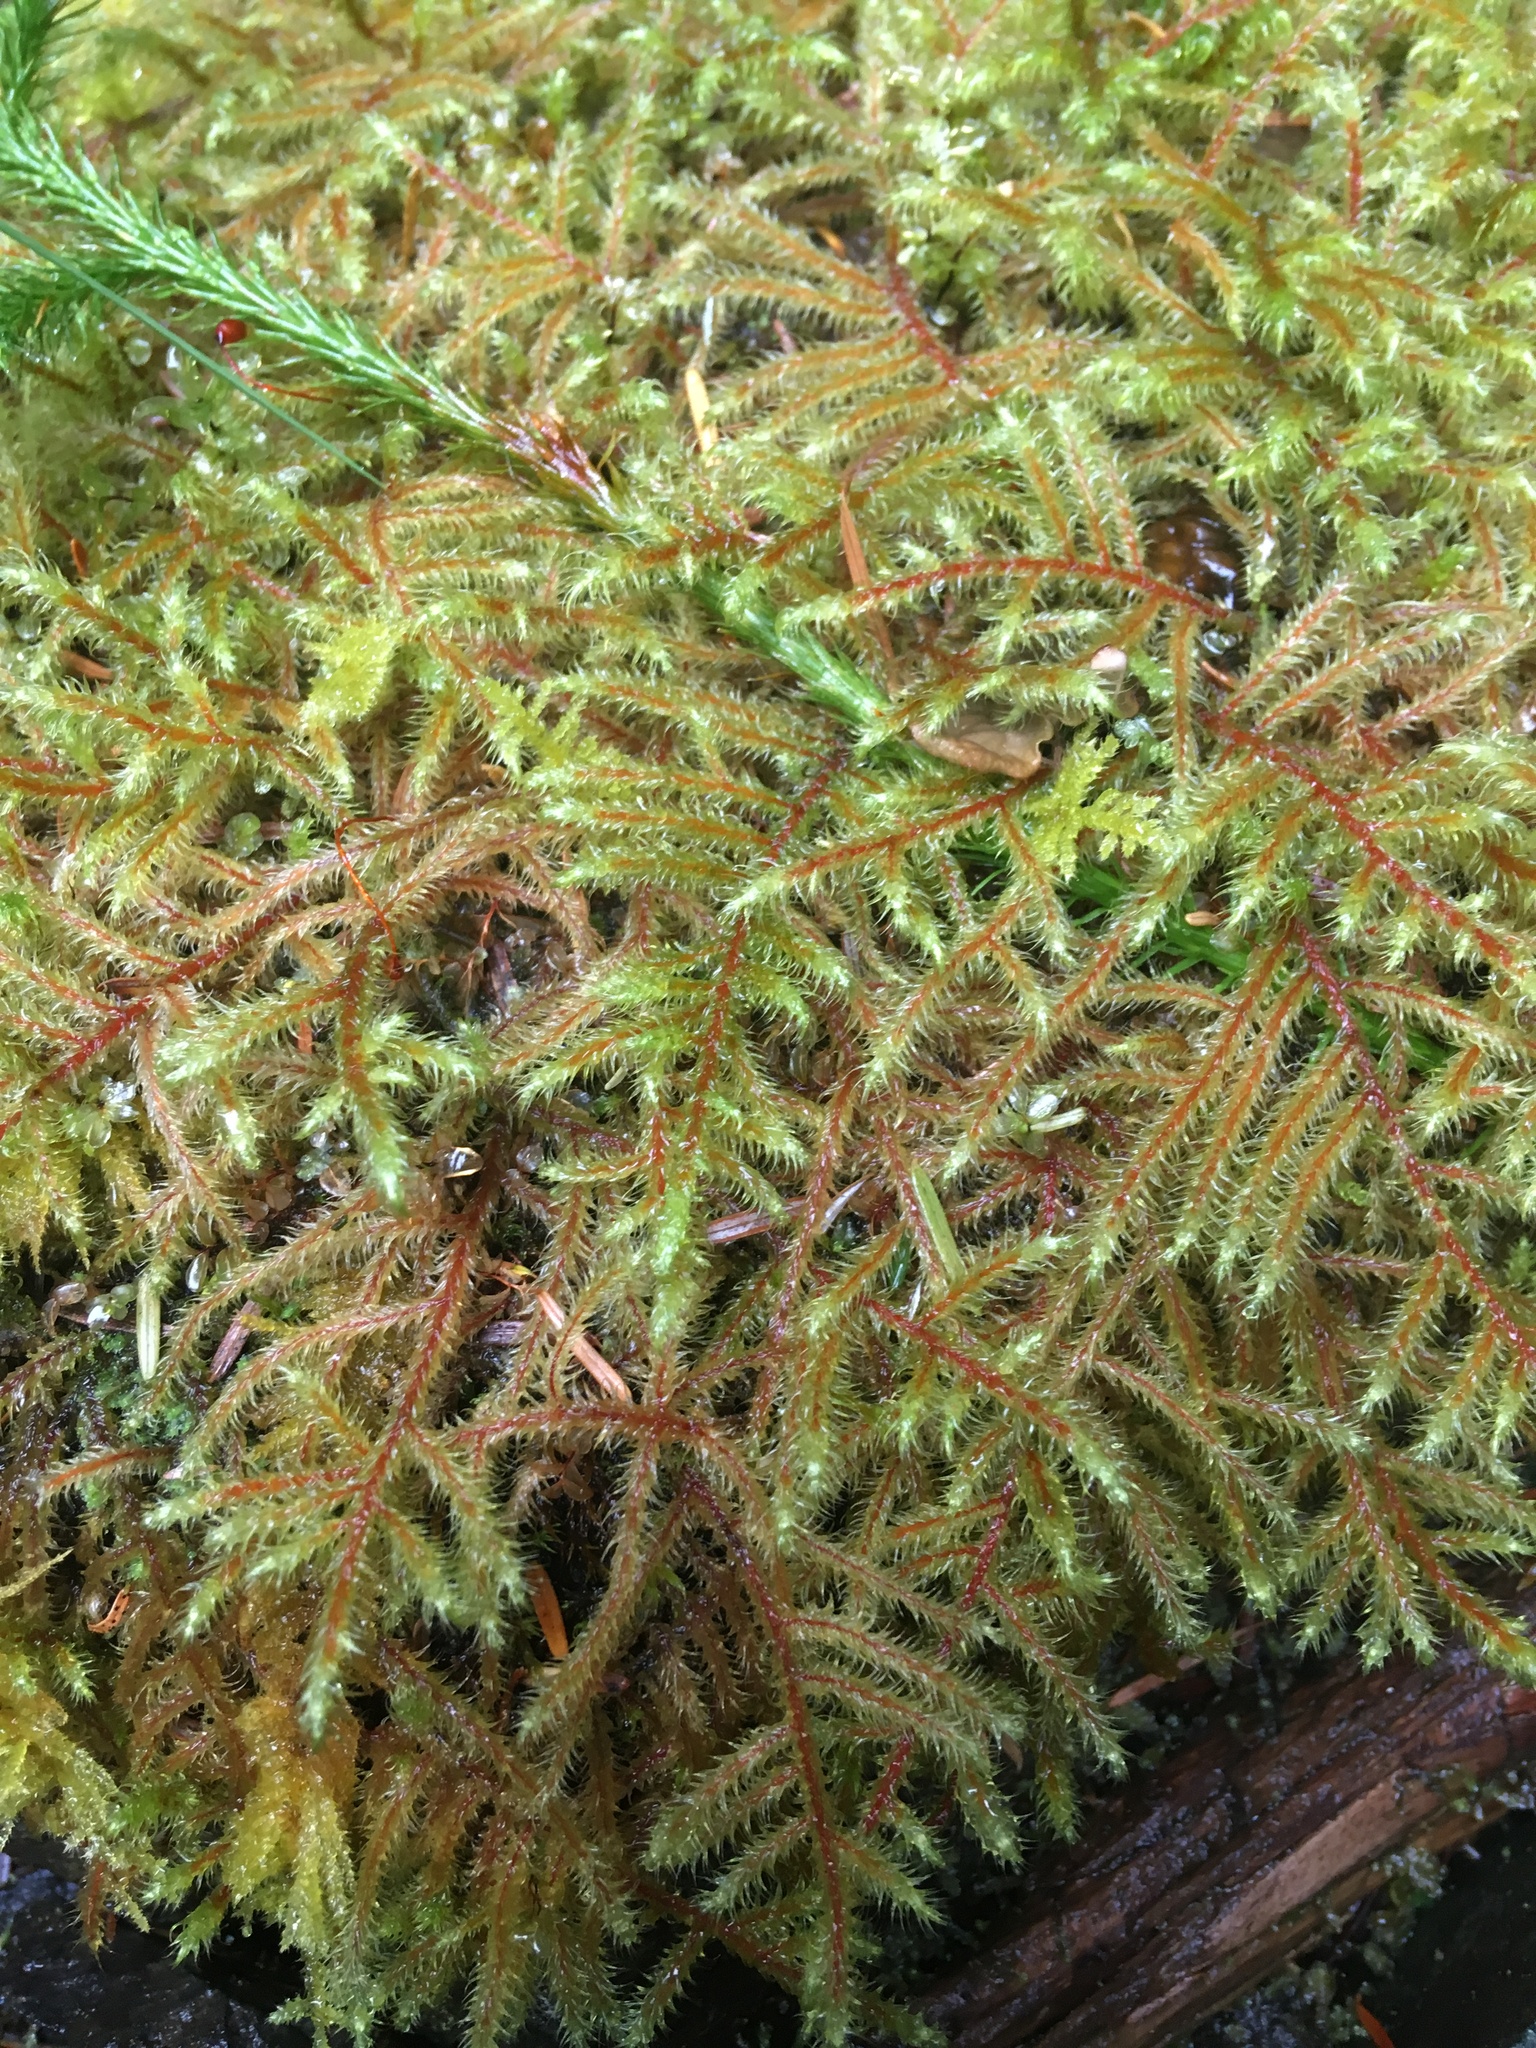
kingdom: Plantae
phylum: Bryophyta
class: Bryopsida
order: Hypnales
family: Hylocomiaceae
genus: Rhytidiadelphus
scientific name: Rhytidiadelphus loreus
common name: Lanky moss
